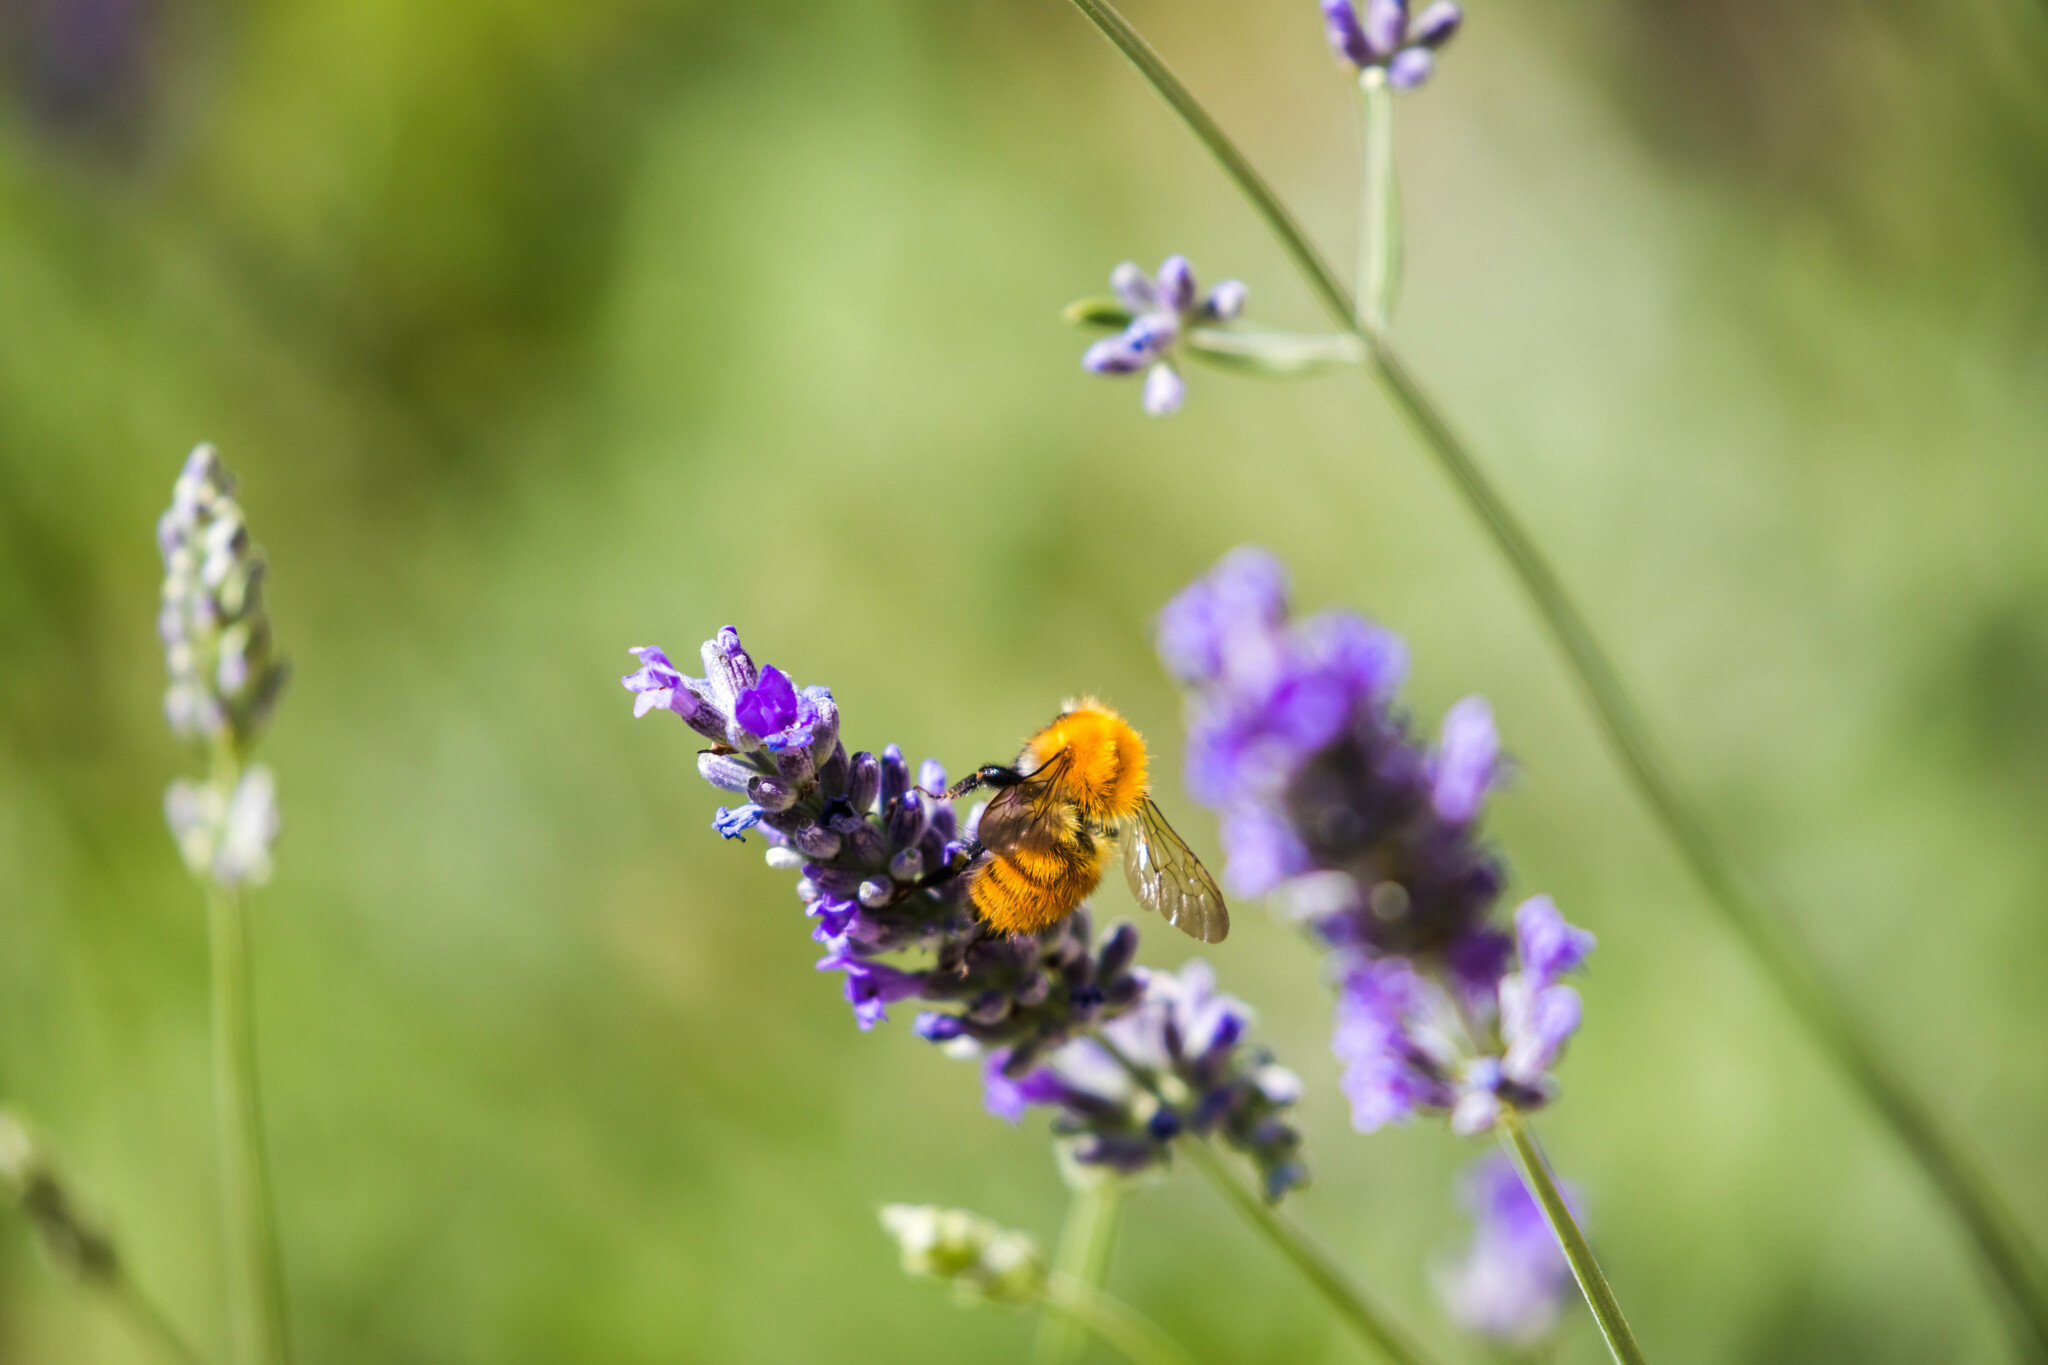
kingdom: Animalia
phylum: Arthropoda
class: Insecta
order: Hymenoptera
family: Apidae
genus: Bombus
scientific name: Bombus pascuorum
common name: Common carder bee
